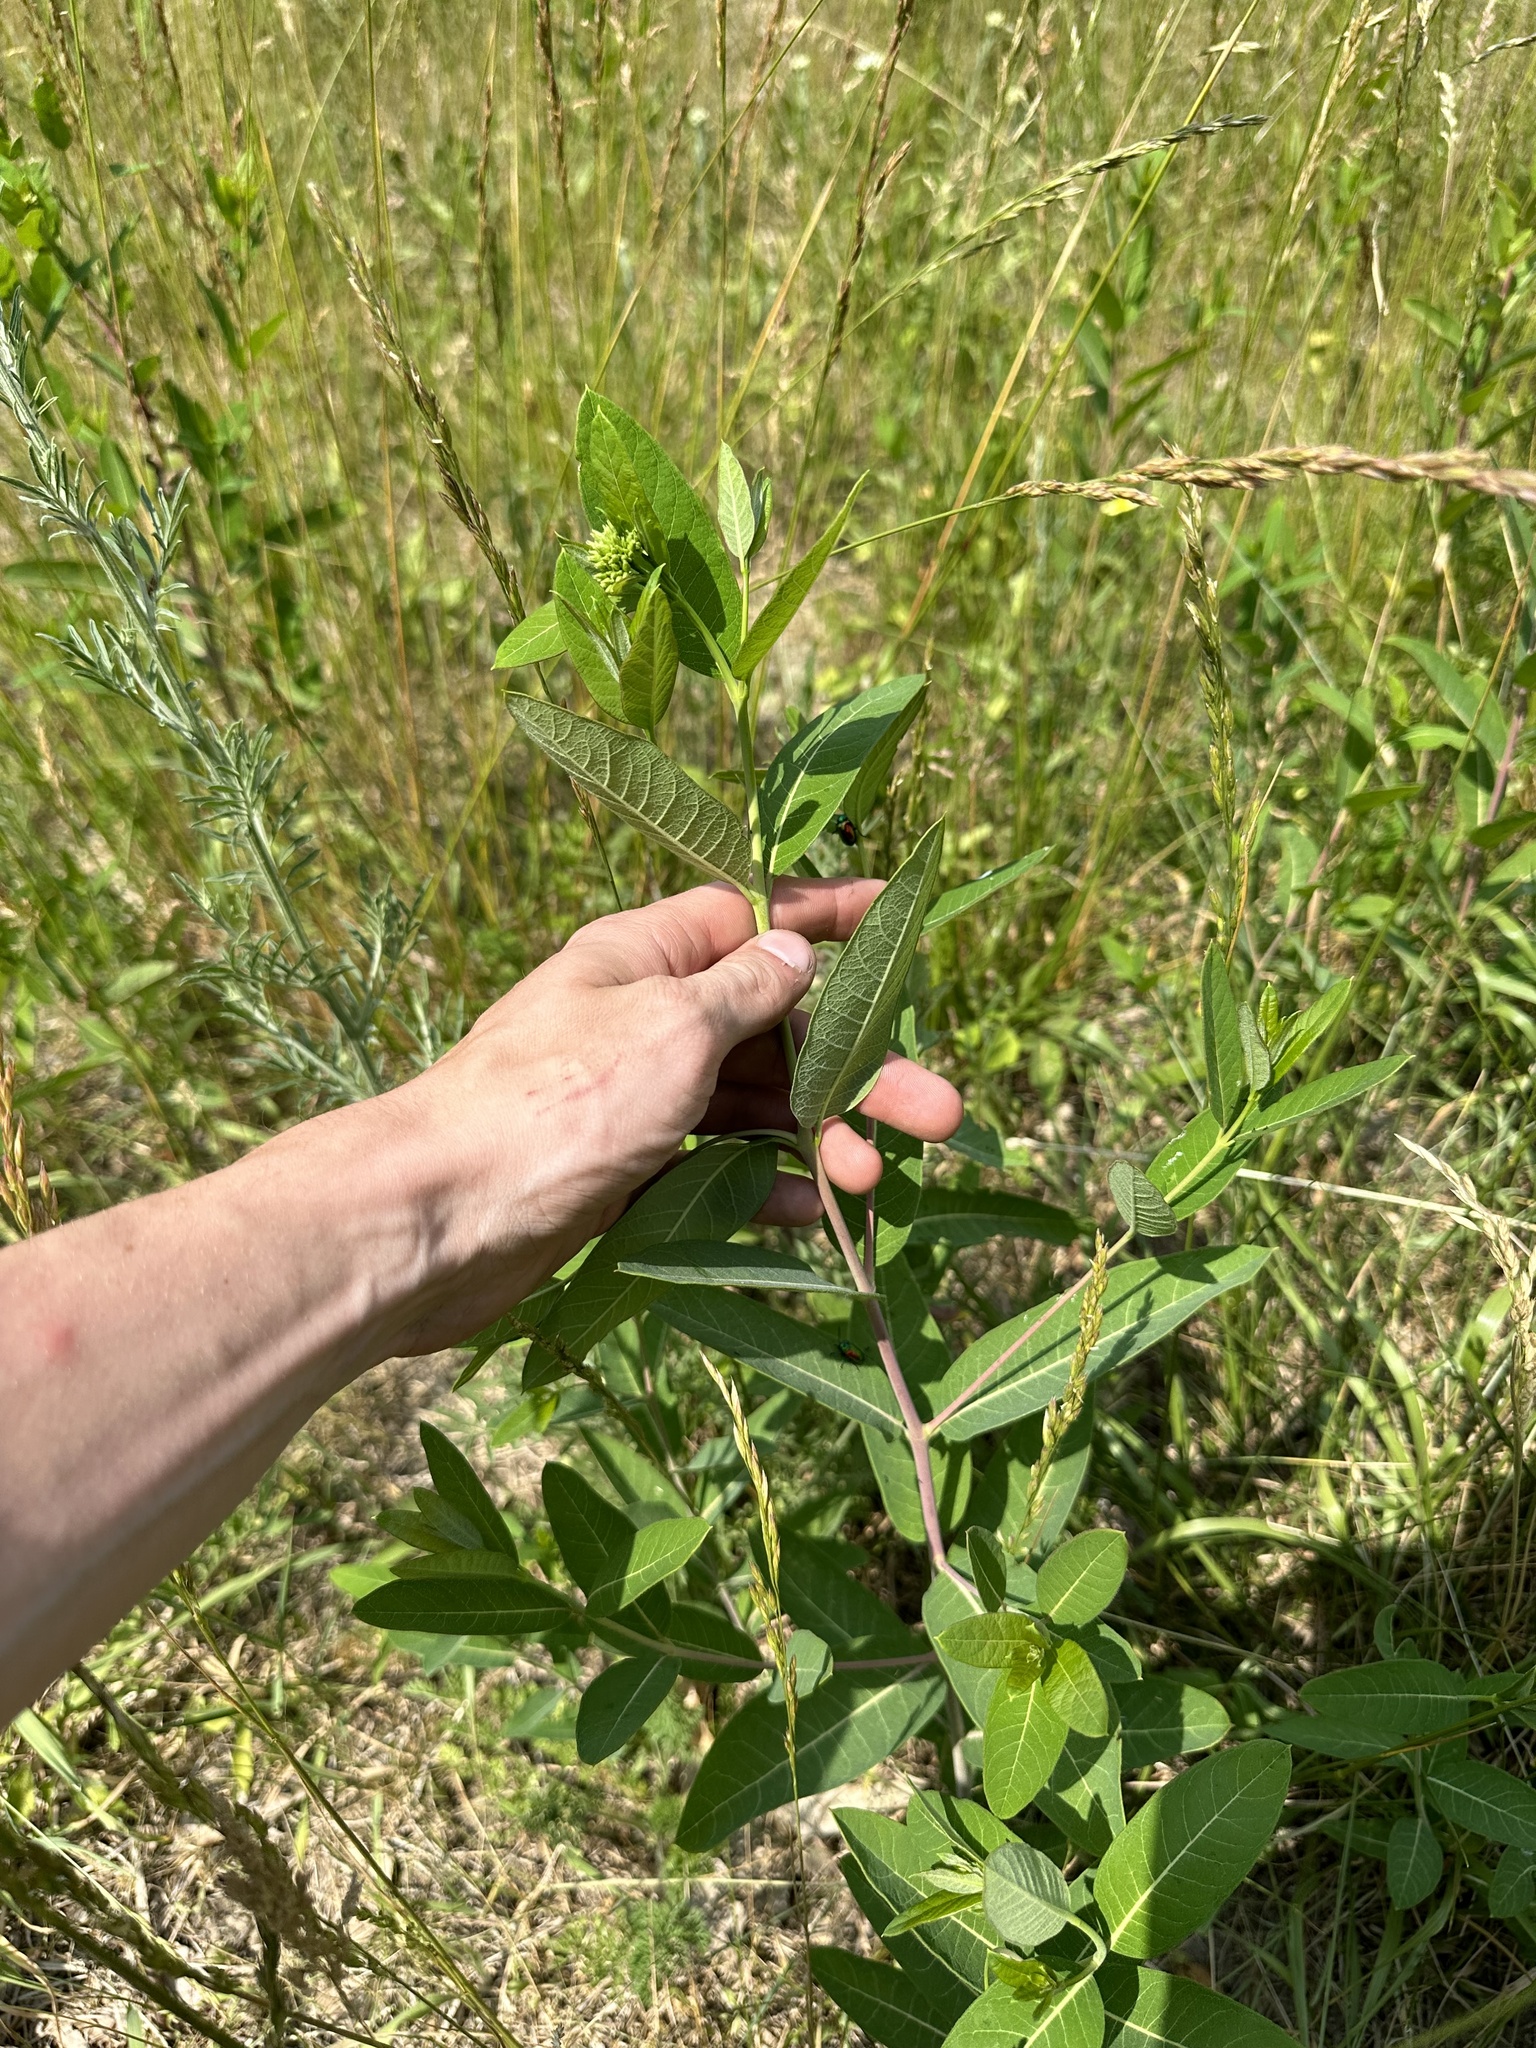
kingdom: Plantae
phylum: Tracheophyta
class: Magnoliopsida
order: Gentianales
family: Apocynaceae
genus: Apocynum
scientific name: Apocynum cannabinum
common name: Hemp dogbane
